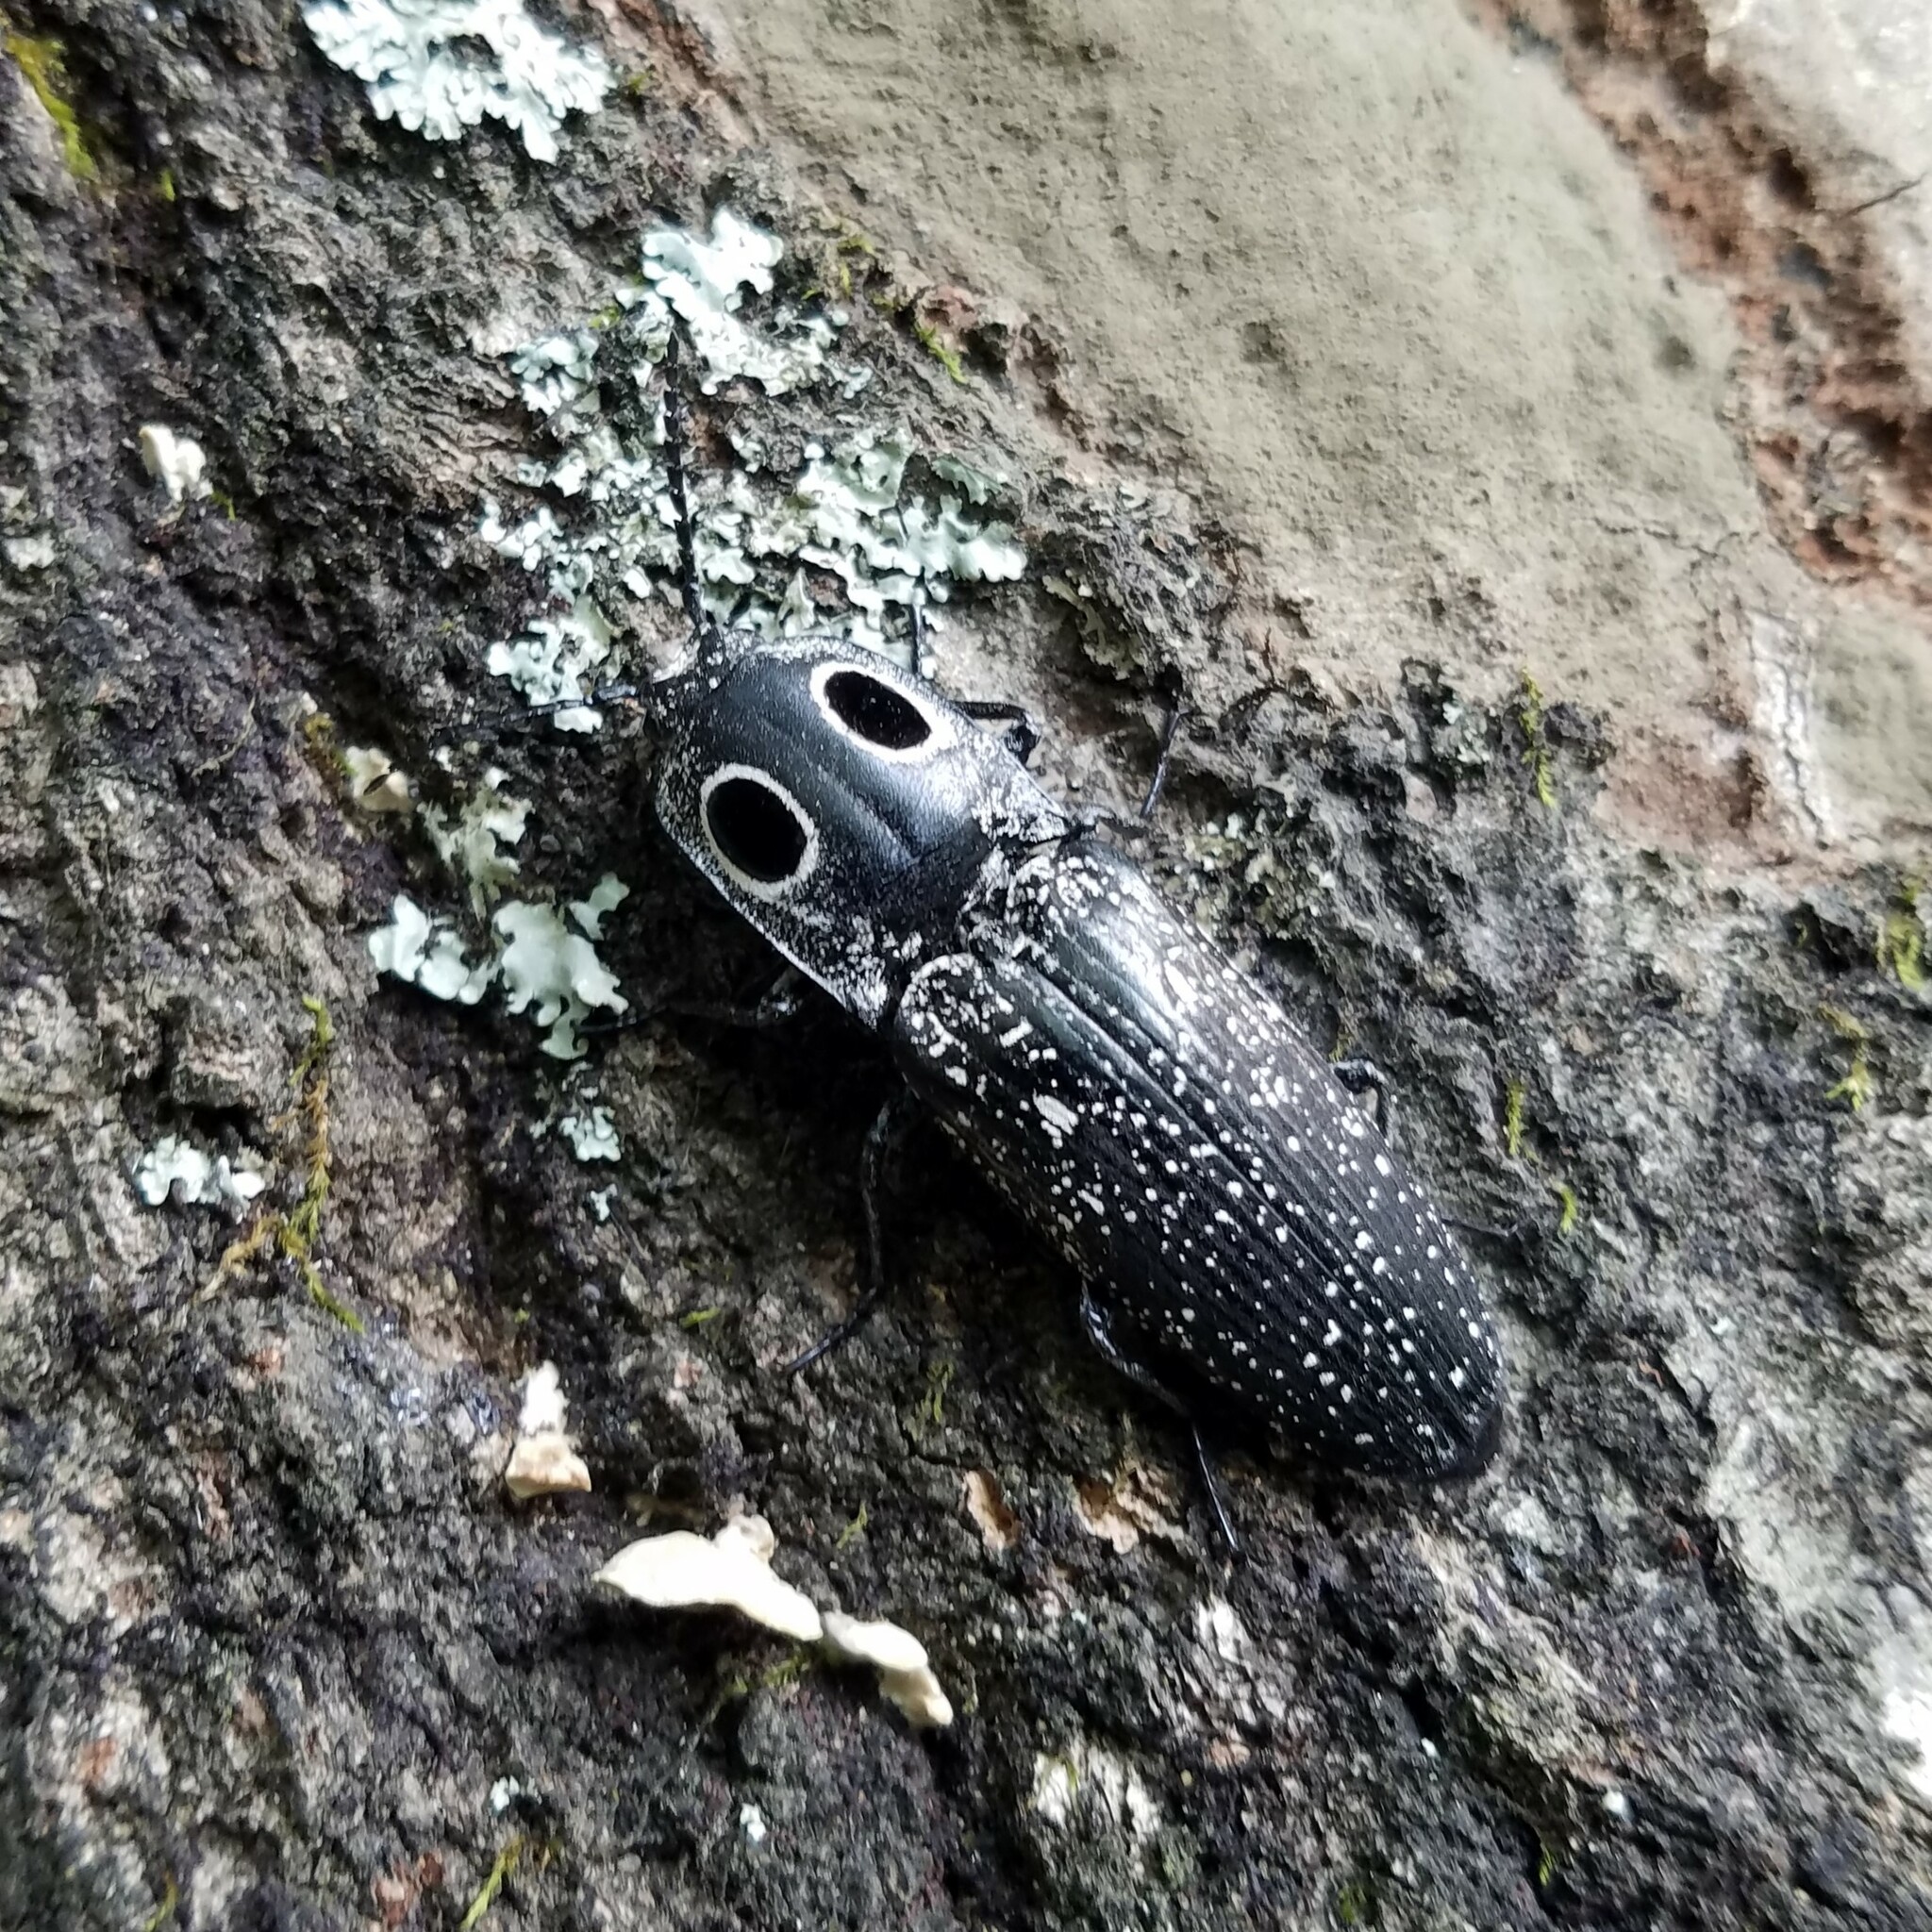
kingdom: Animalia
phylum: Arthropoda
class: Insecta
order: Coleoptera
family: Elateridae
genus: Alaus
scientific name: Alaus oculatus
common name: Eastern eyed click beetle
